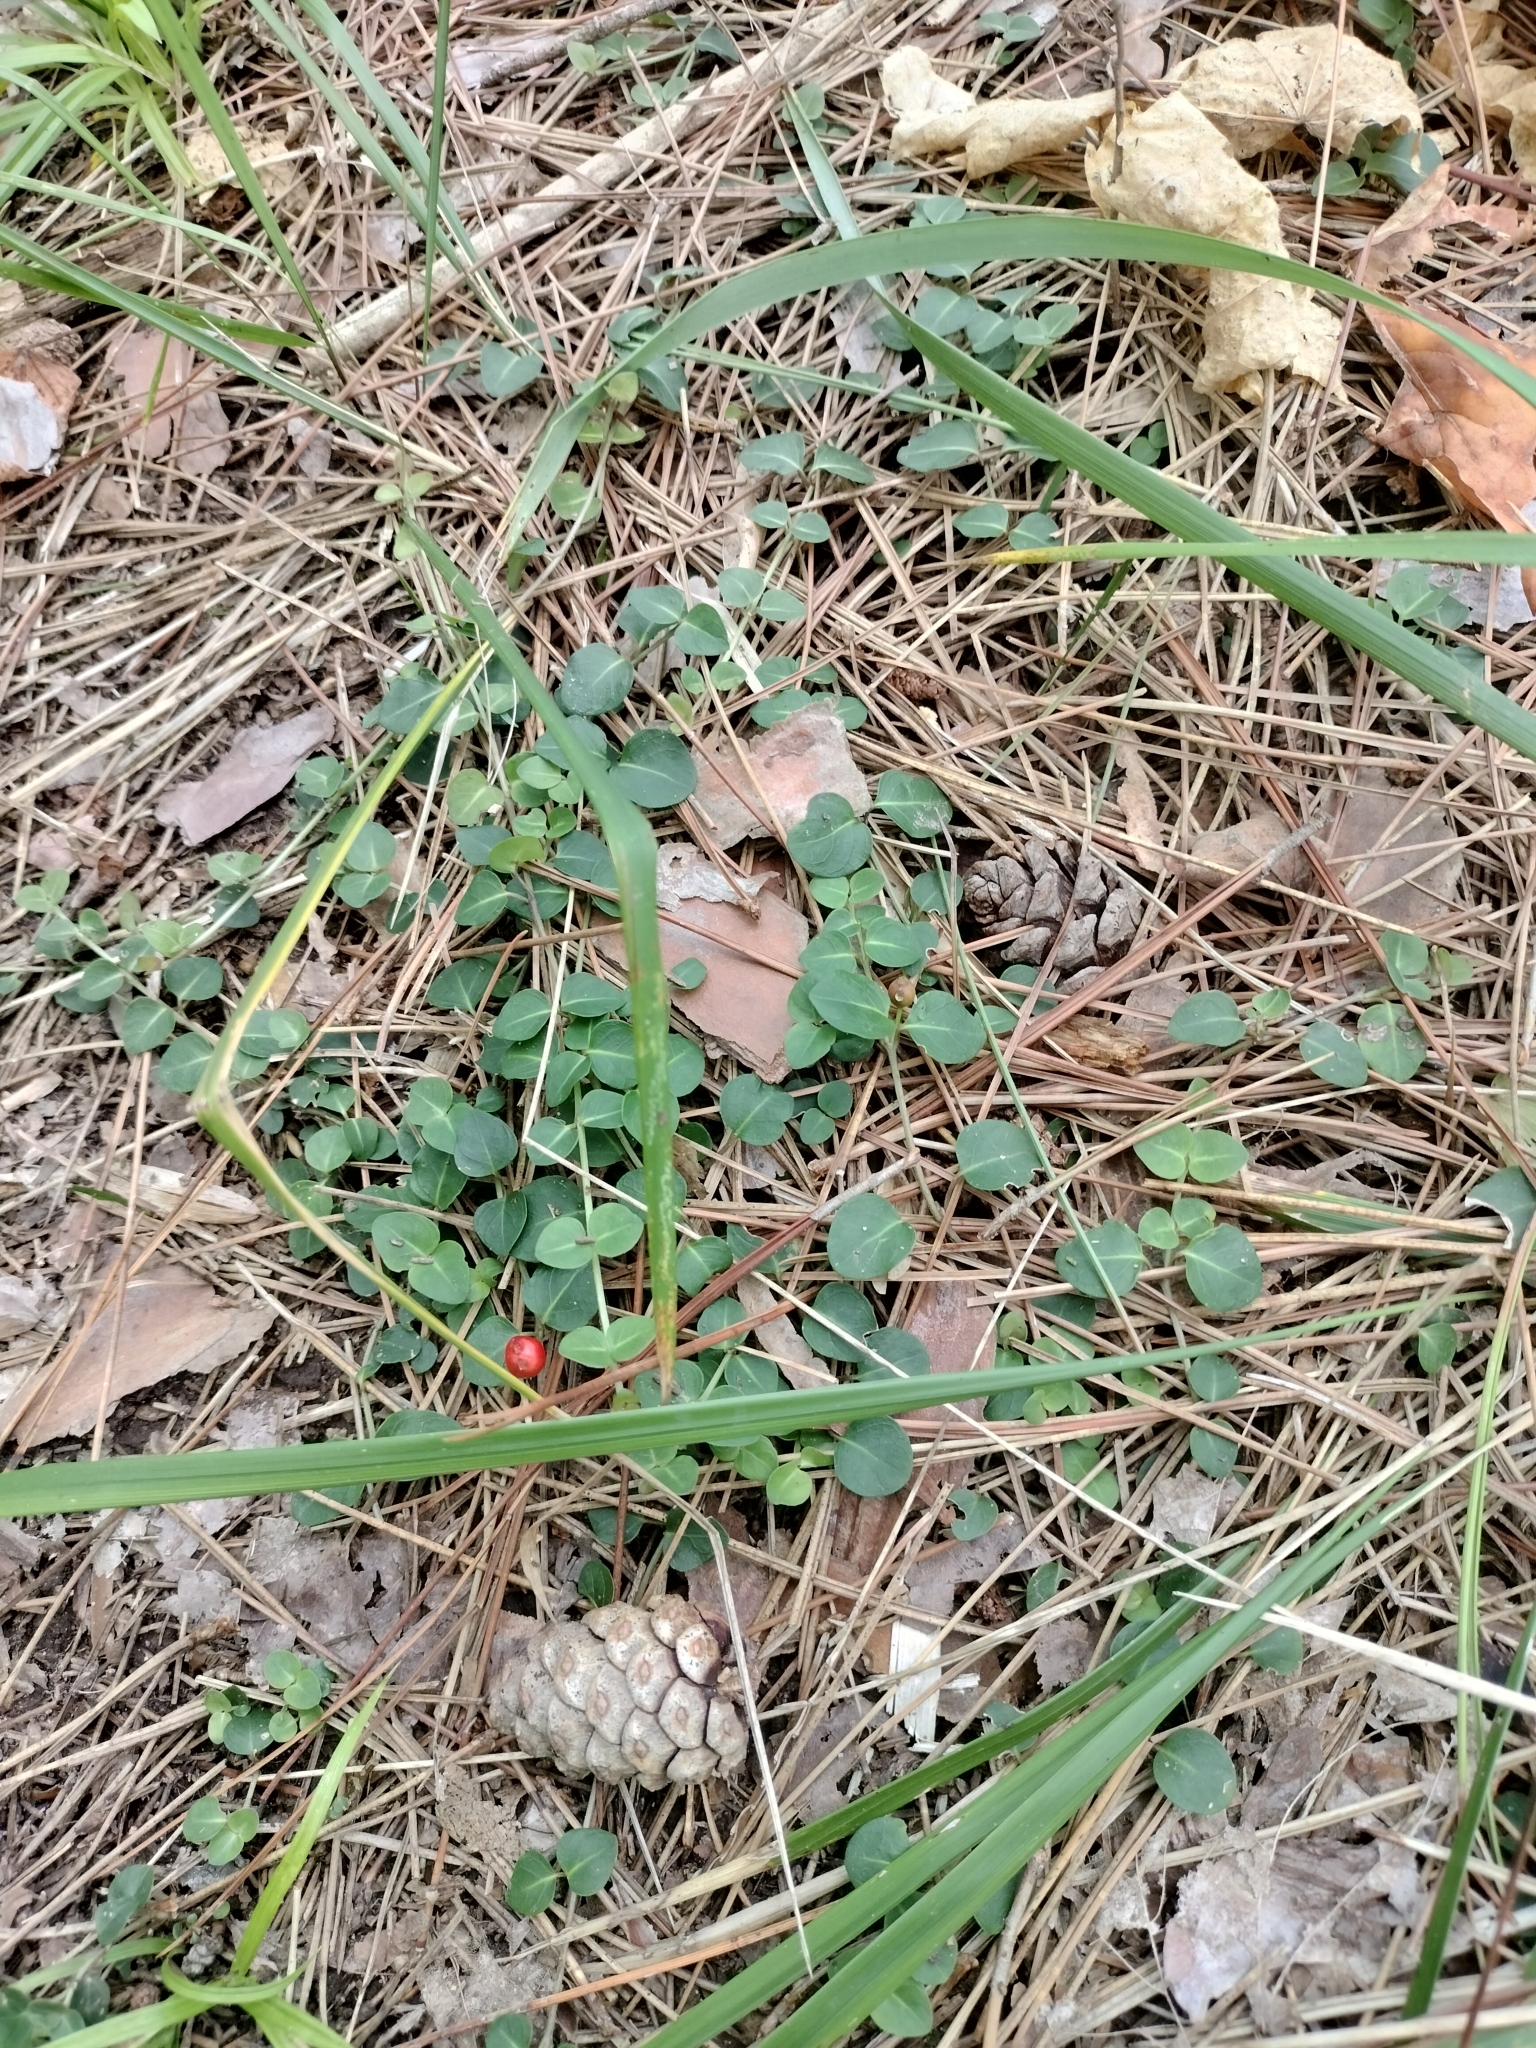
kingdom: Plantae
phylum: Tracheophyta
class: Magnoliopsida
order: Gentianales
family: Rubiaceae
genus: Mitchella
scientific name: Mitchella repens
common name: Partridge-berry
